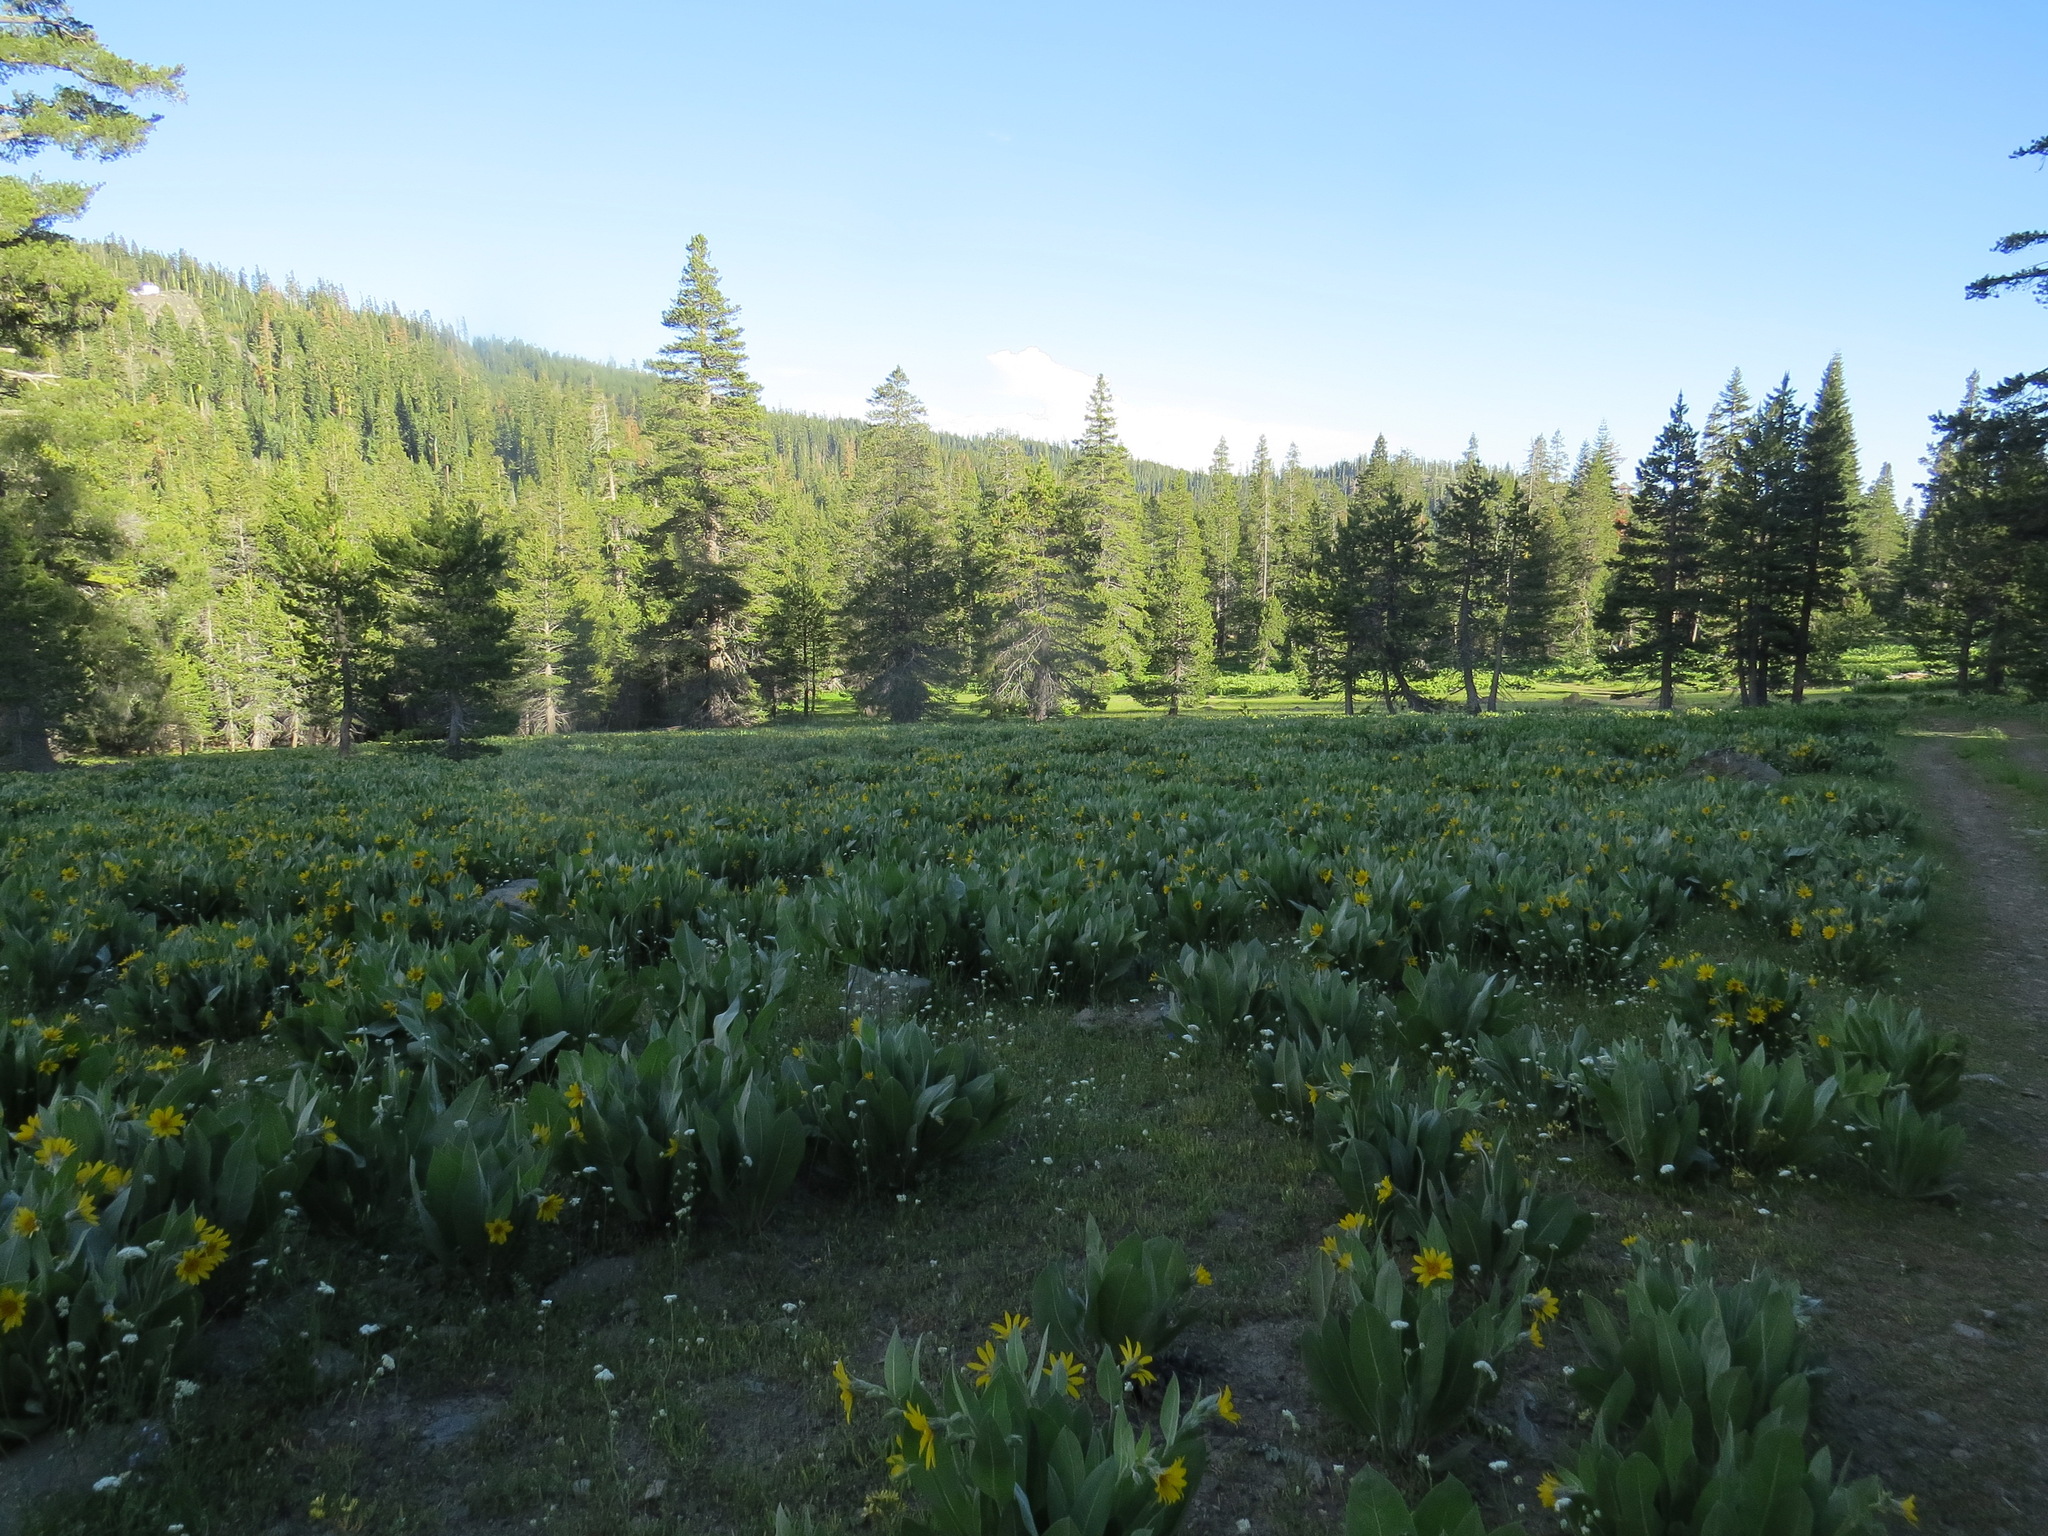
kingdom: Plantae
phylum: Tracheophyta
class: Magnoliopsida
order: Asterales
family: Asteraceae
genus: Wyethia
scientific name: Wyethia mollis
